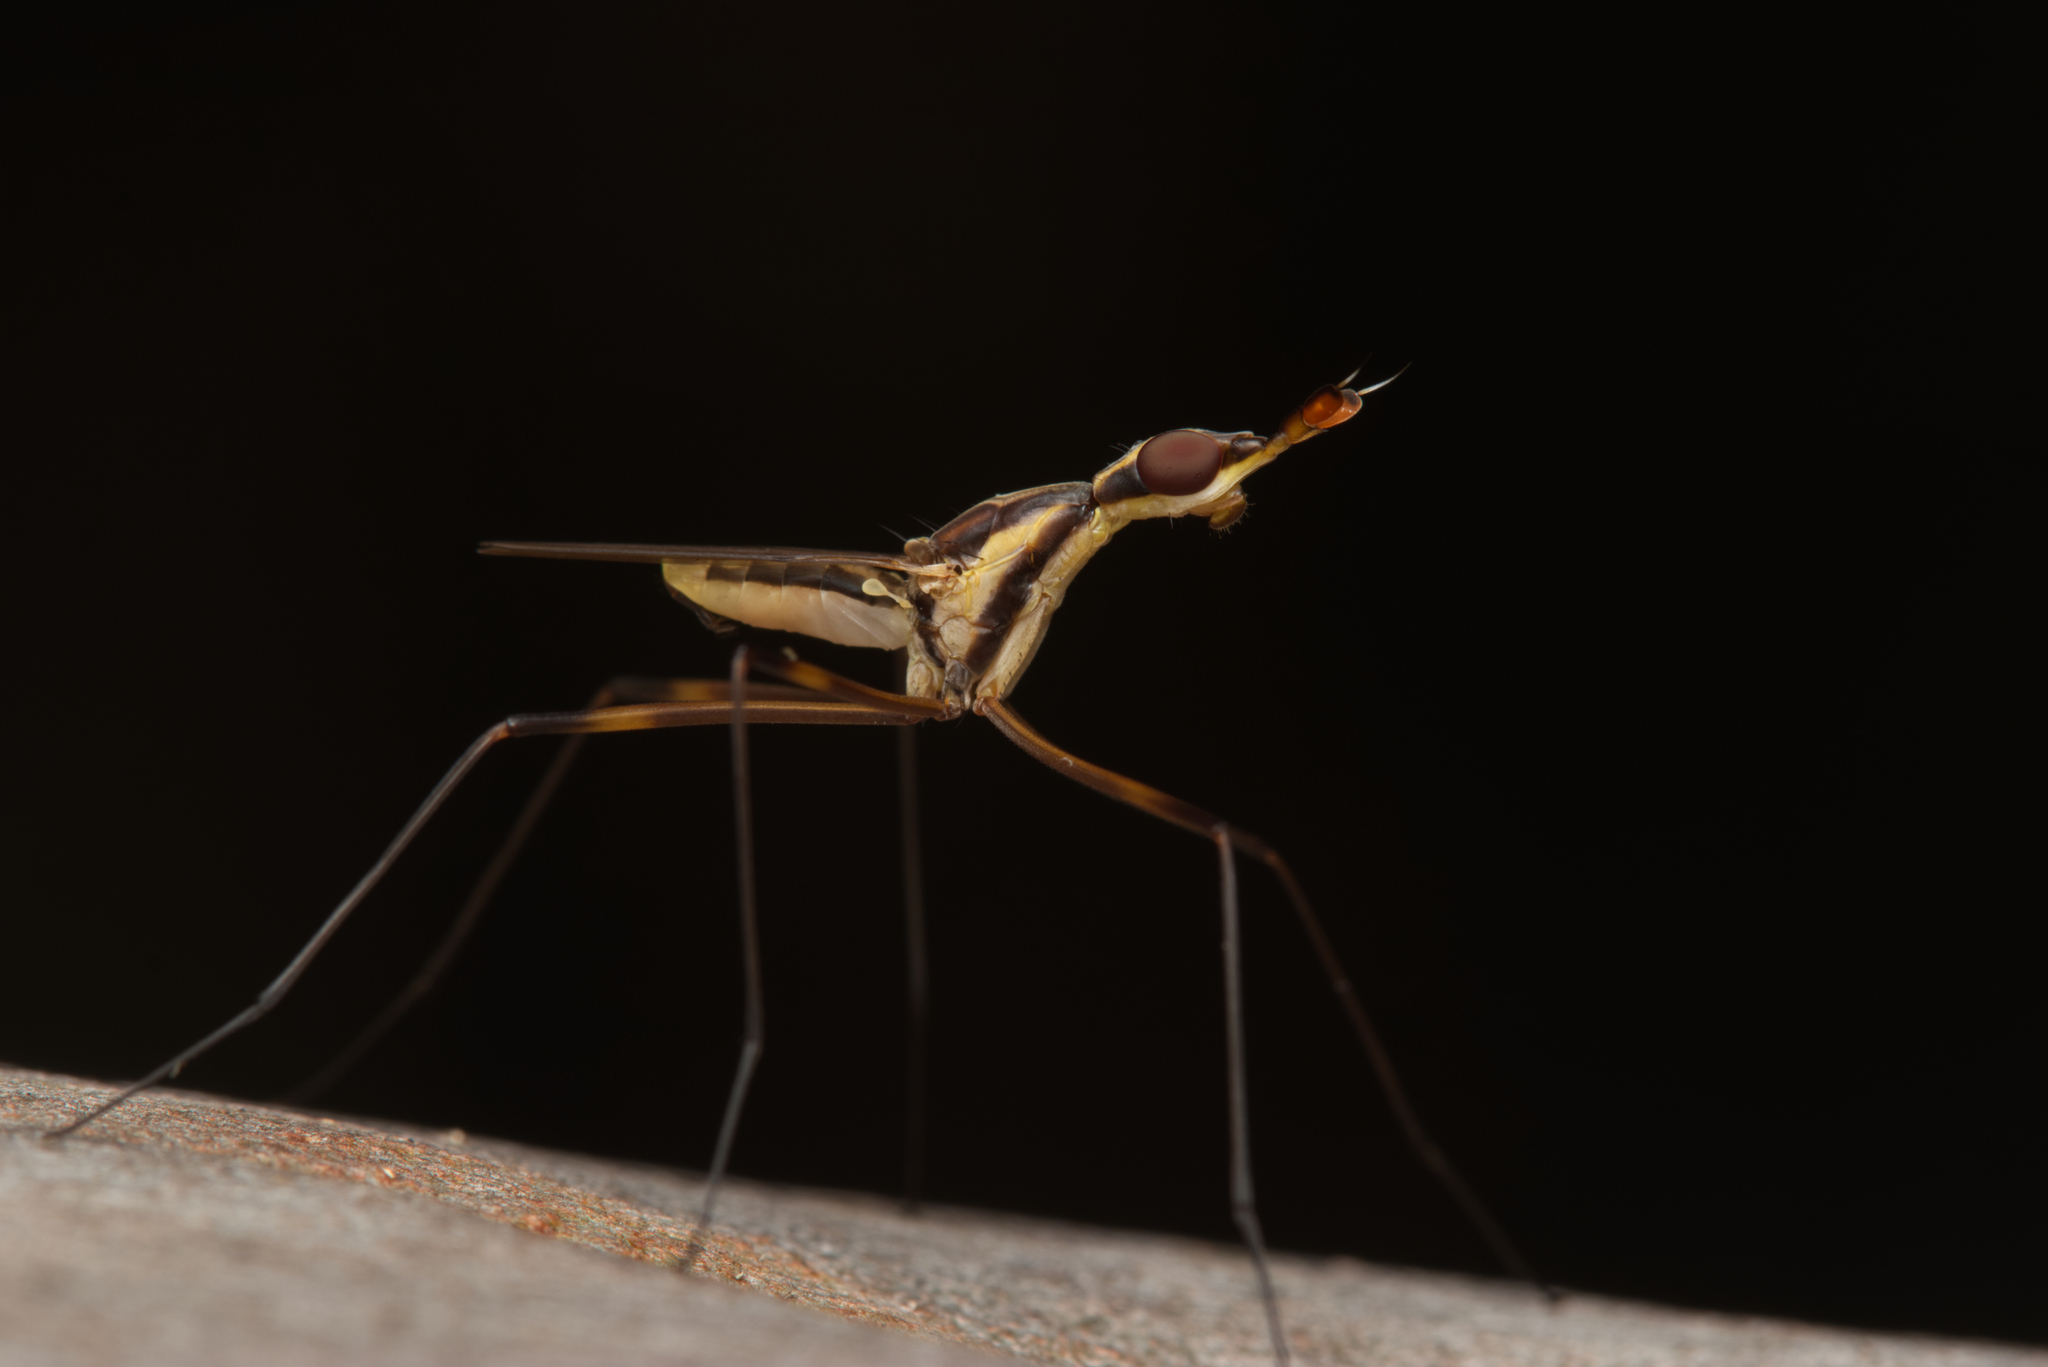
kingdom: Animalia
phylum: Arthropoda
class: Insecta
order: Diptera
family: Neriidae
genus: Derocephalus
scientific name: Derocephalus angusticollis
